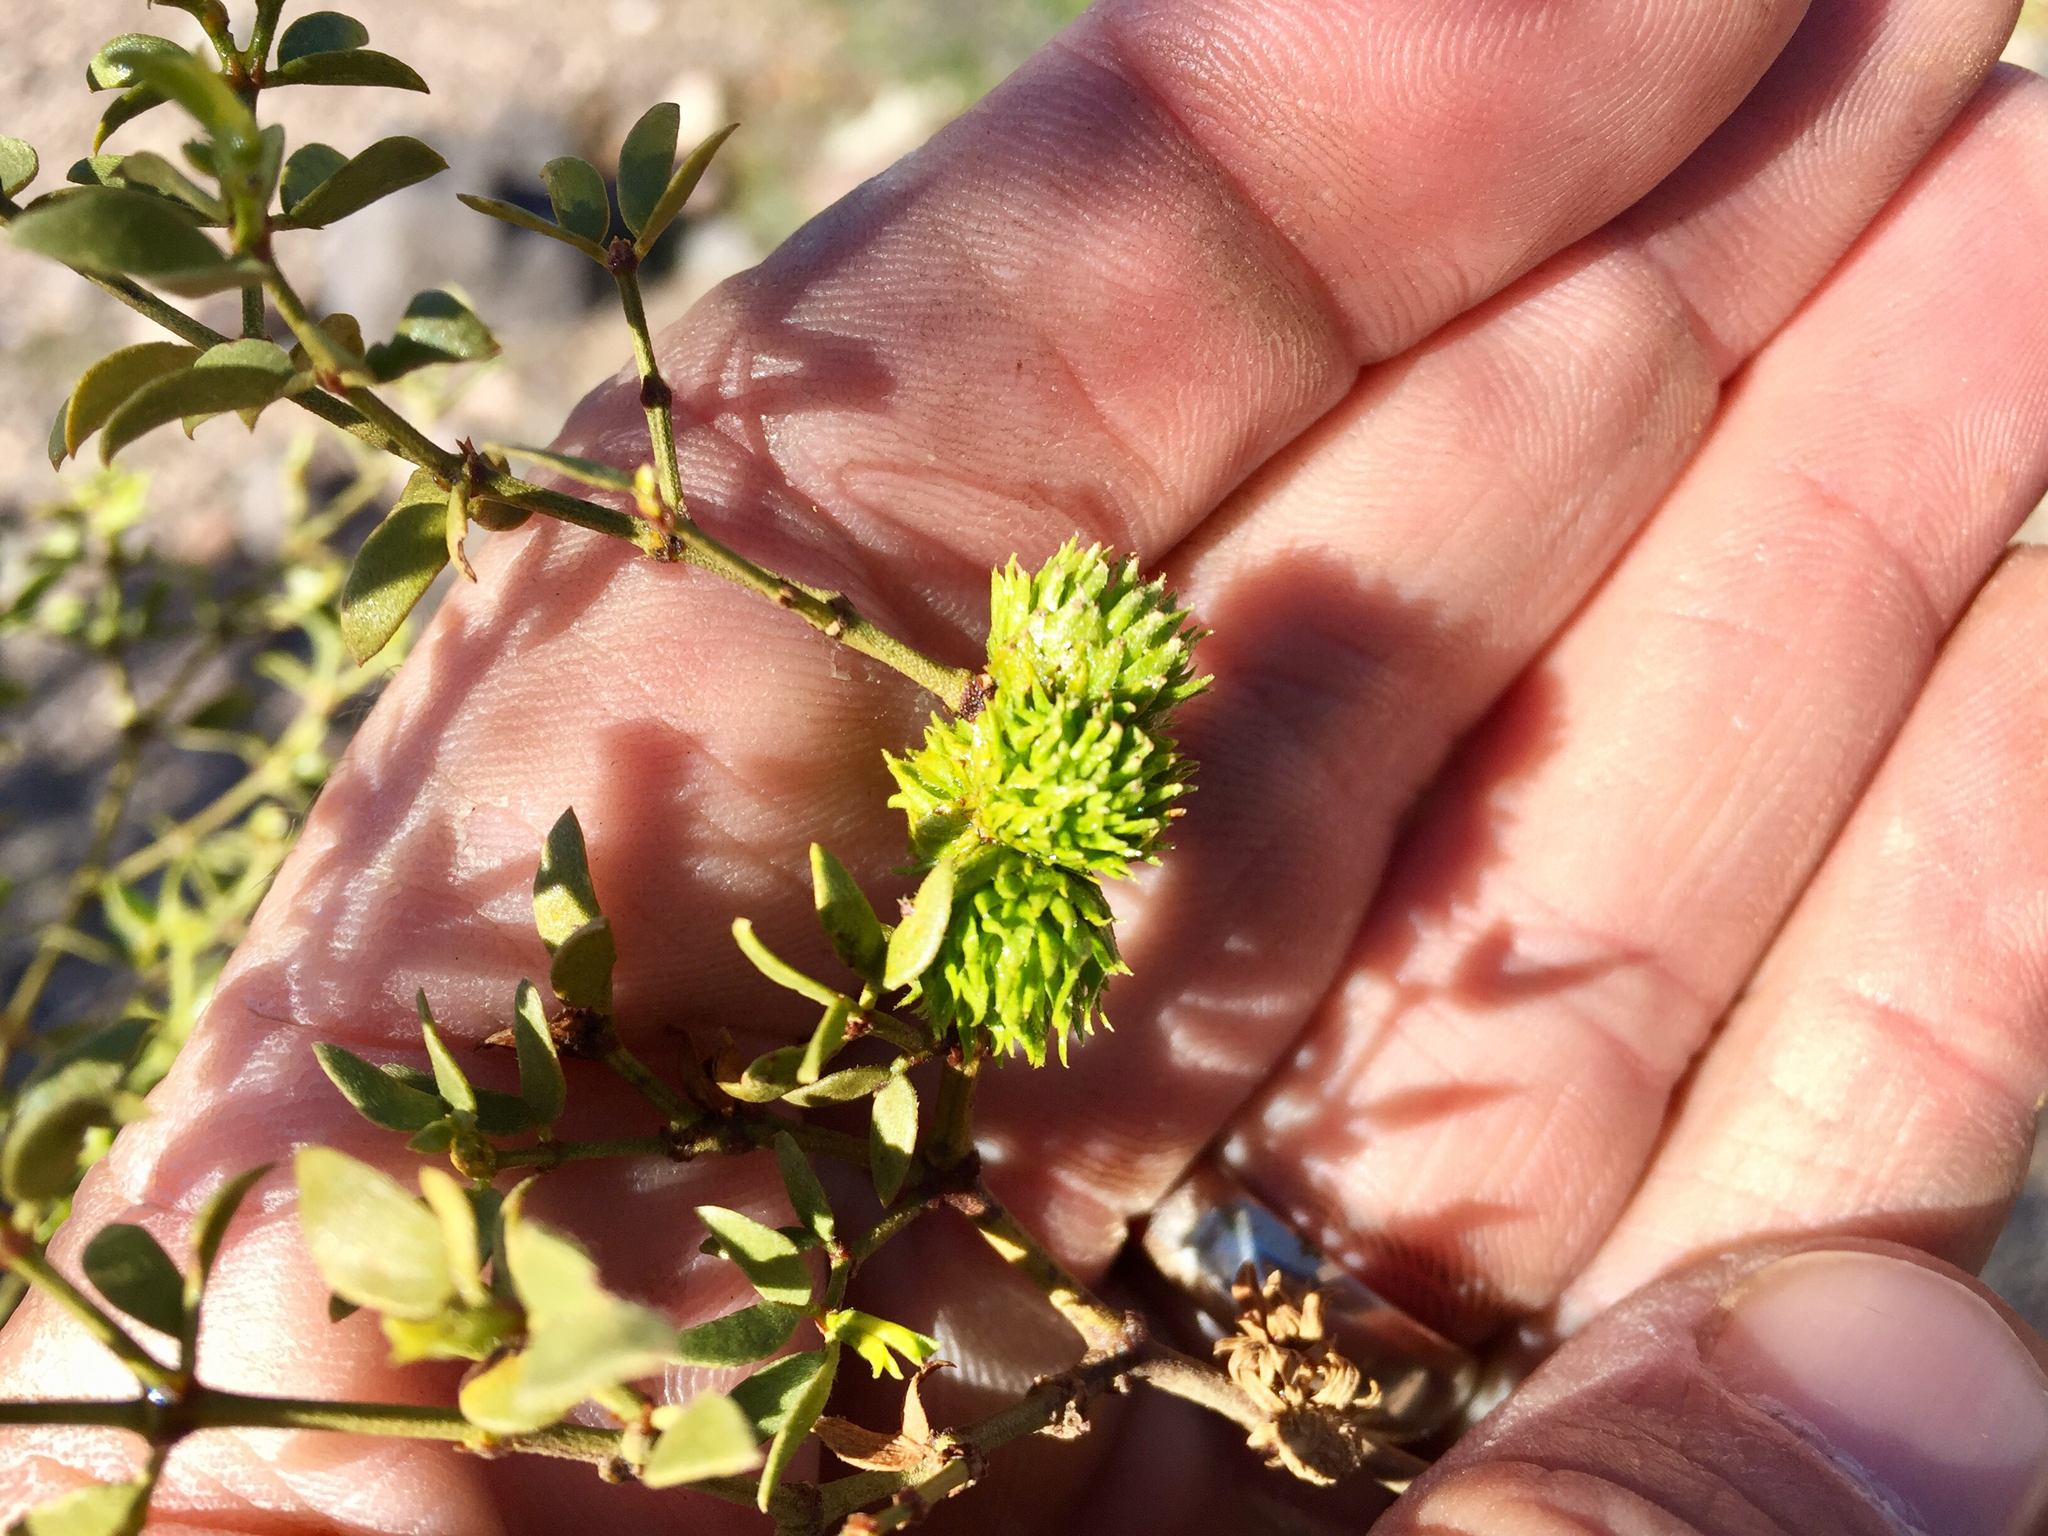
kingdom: Animalia
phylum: Arthropoda
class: Insecta
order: Diptera
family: Cecidomyiidae
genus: Asphondylia
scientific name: Asphondylia foliosa
